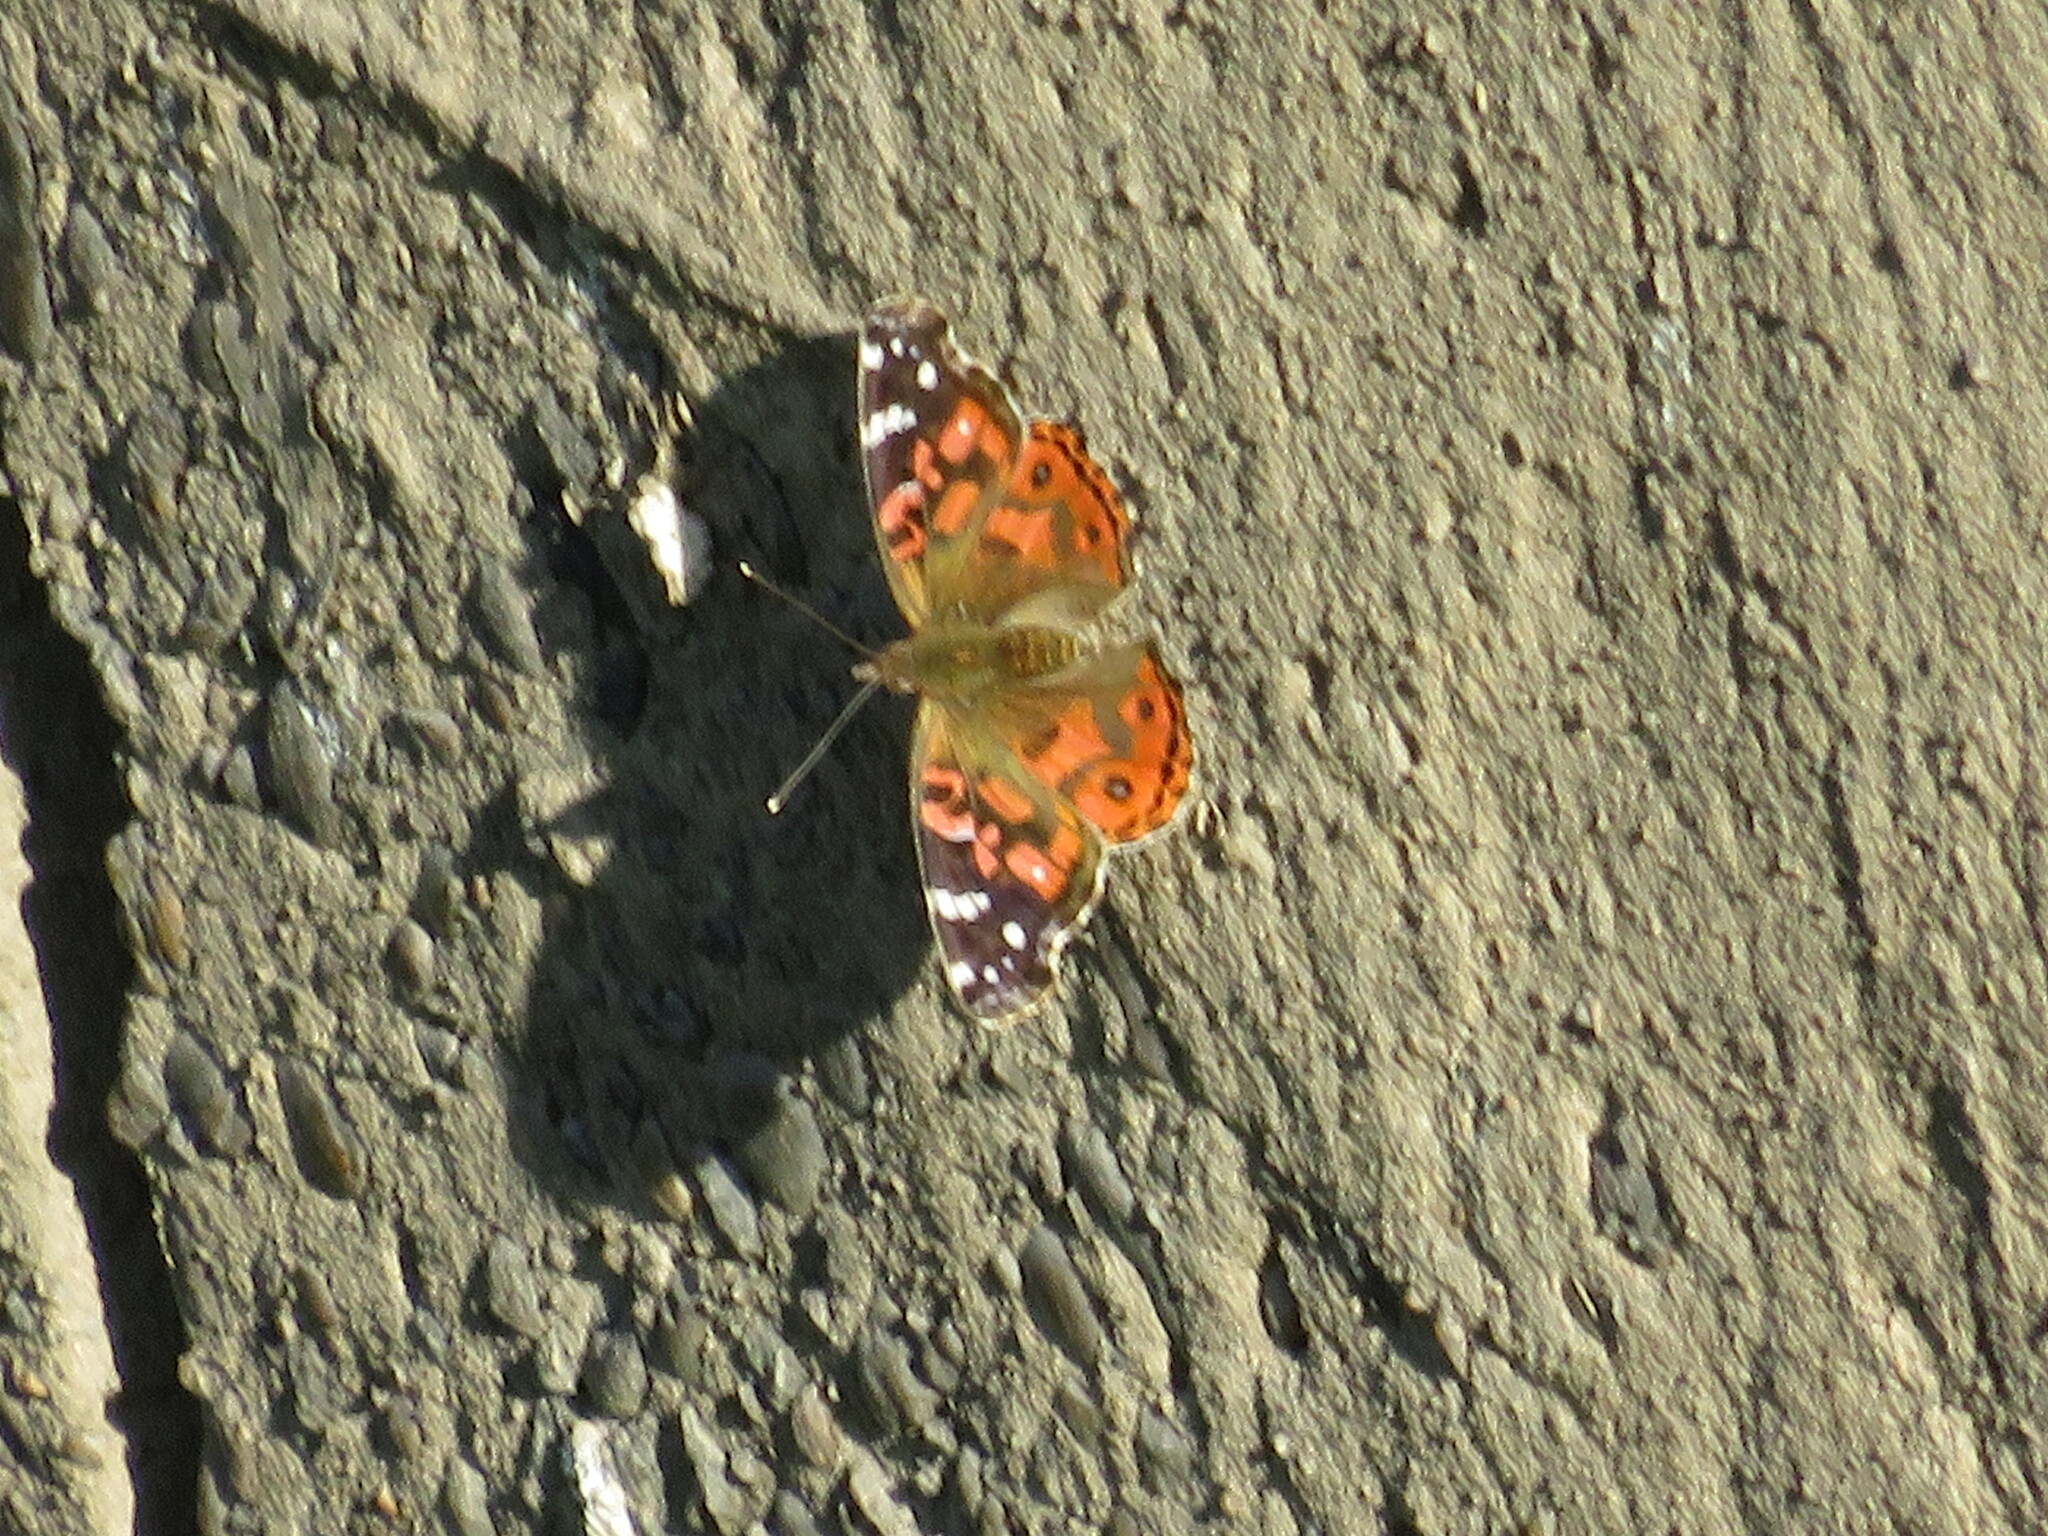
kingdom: Animalia
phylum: Arthropoda
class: Insecta
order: Lepidoptera
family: Nymphalidae
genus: Vanessa
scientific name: Vanessa braziliensis
